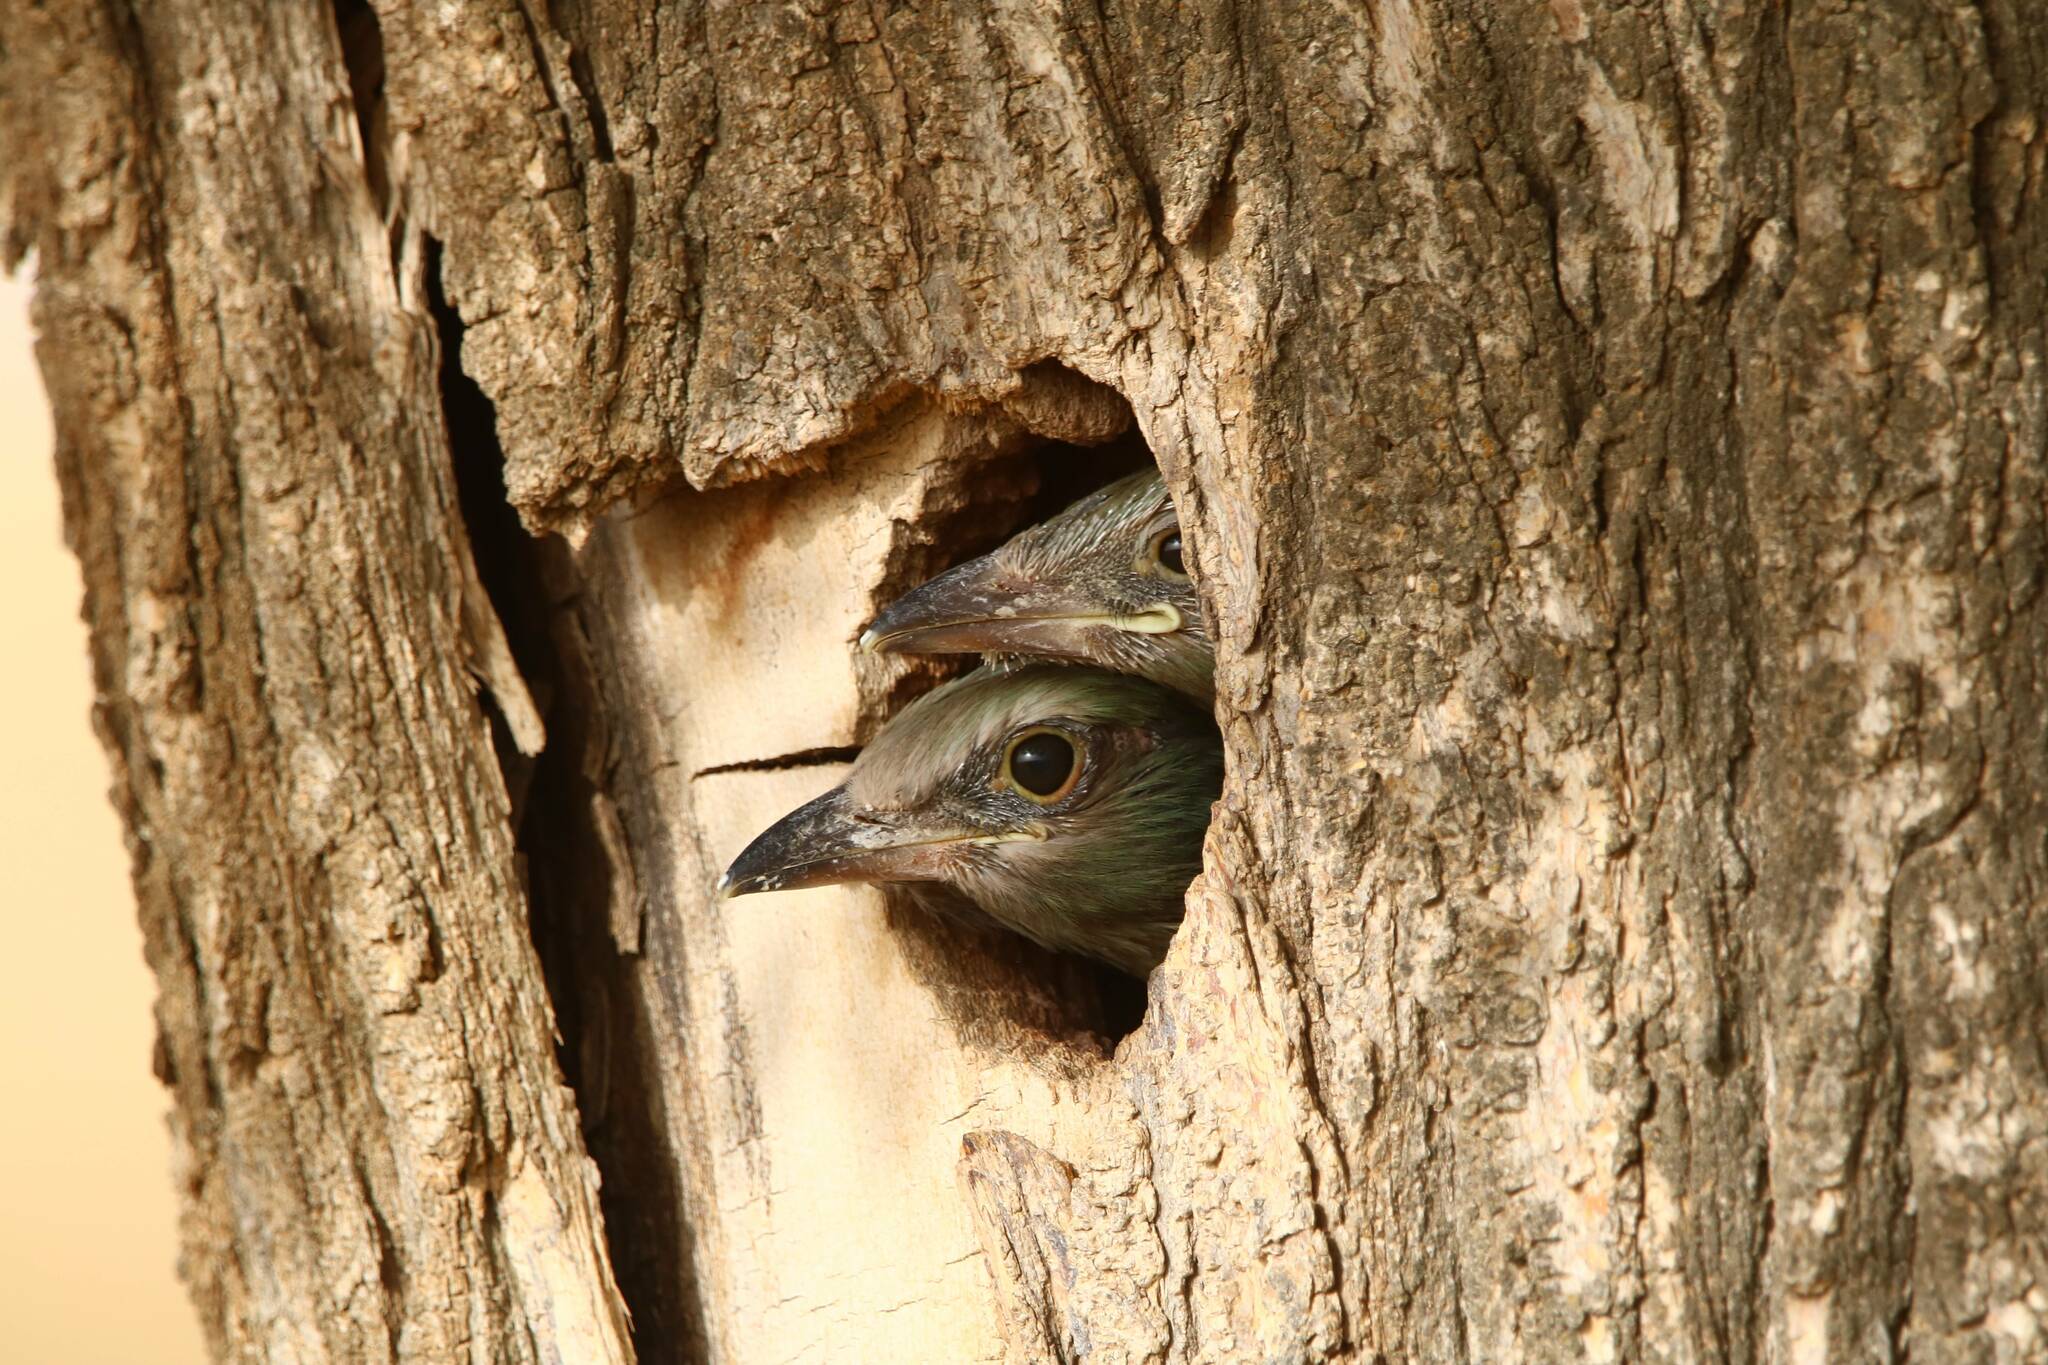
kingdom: Animalia
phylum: Chordata
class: Aves
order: Coraciiformes
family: Coraciidae
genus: Coracias
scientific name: Coracias garrulus
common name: European roller
